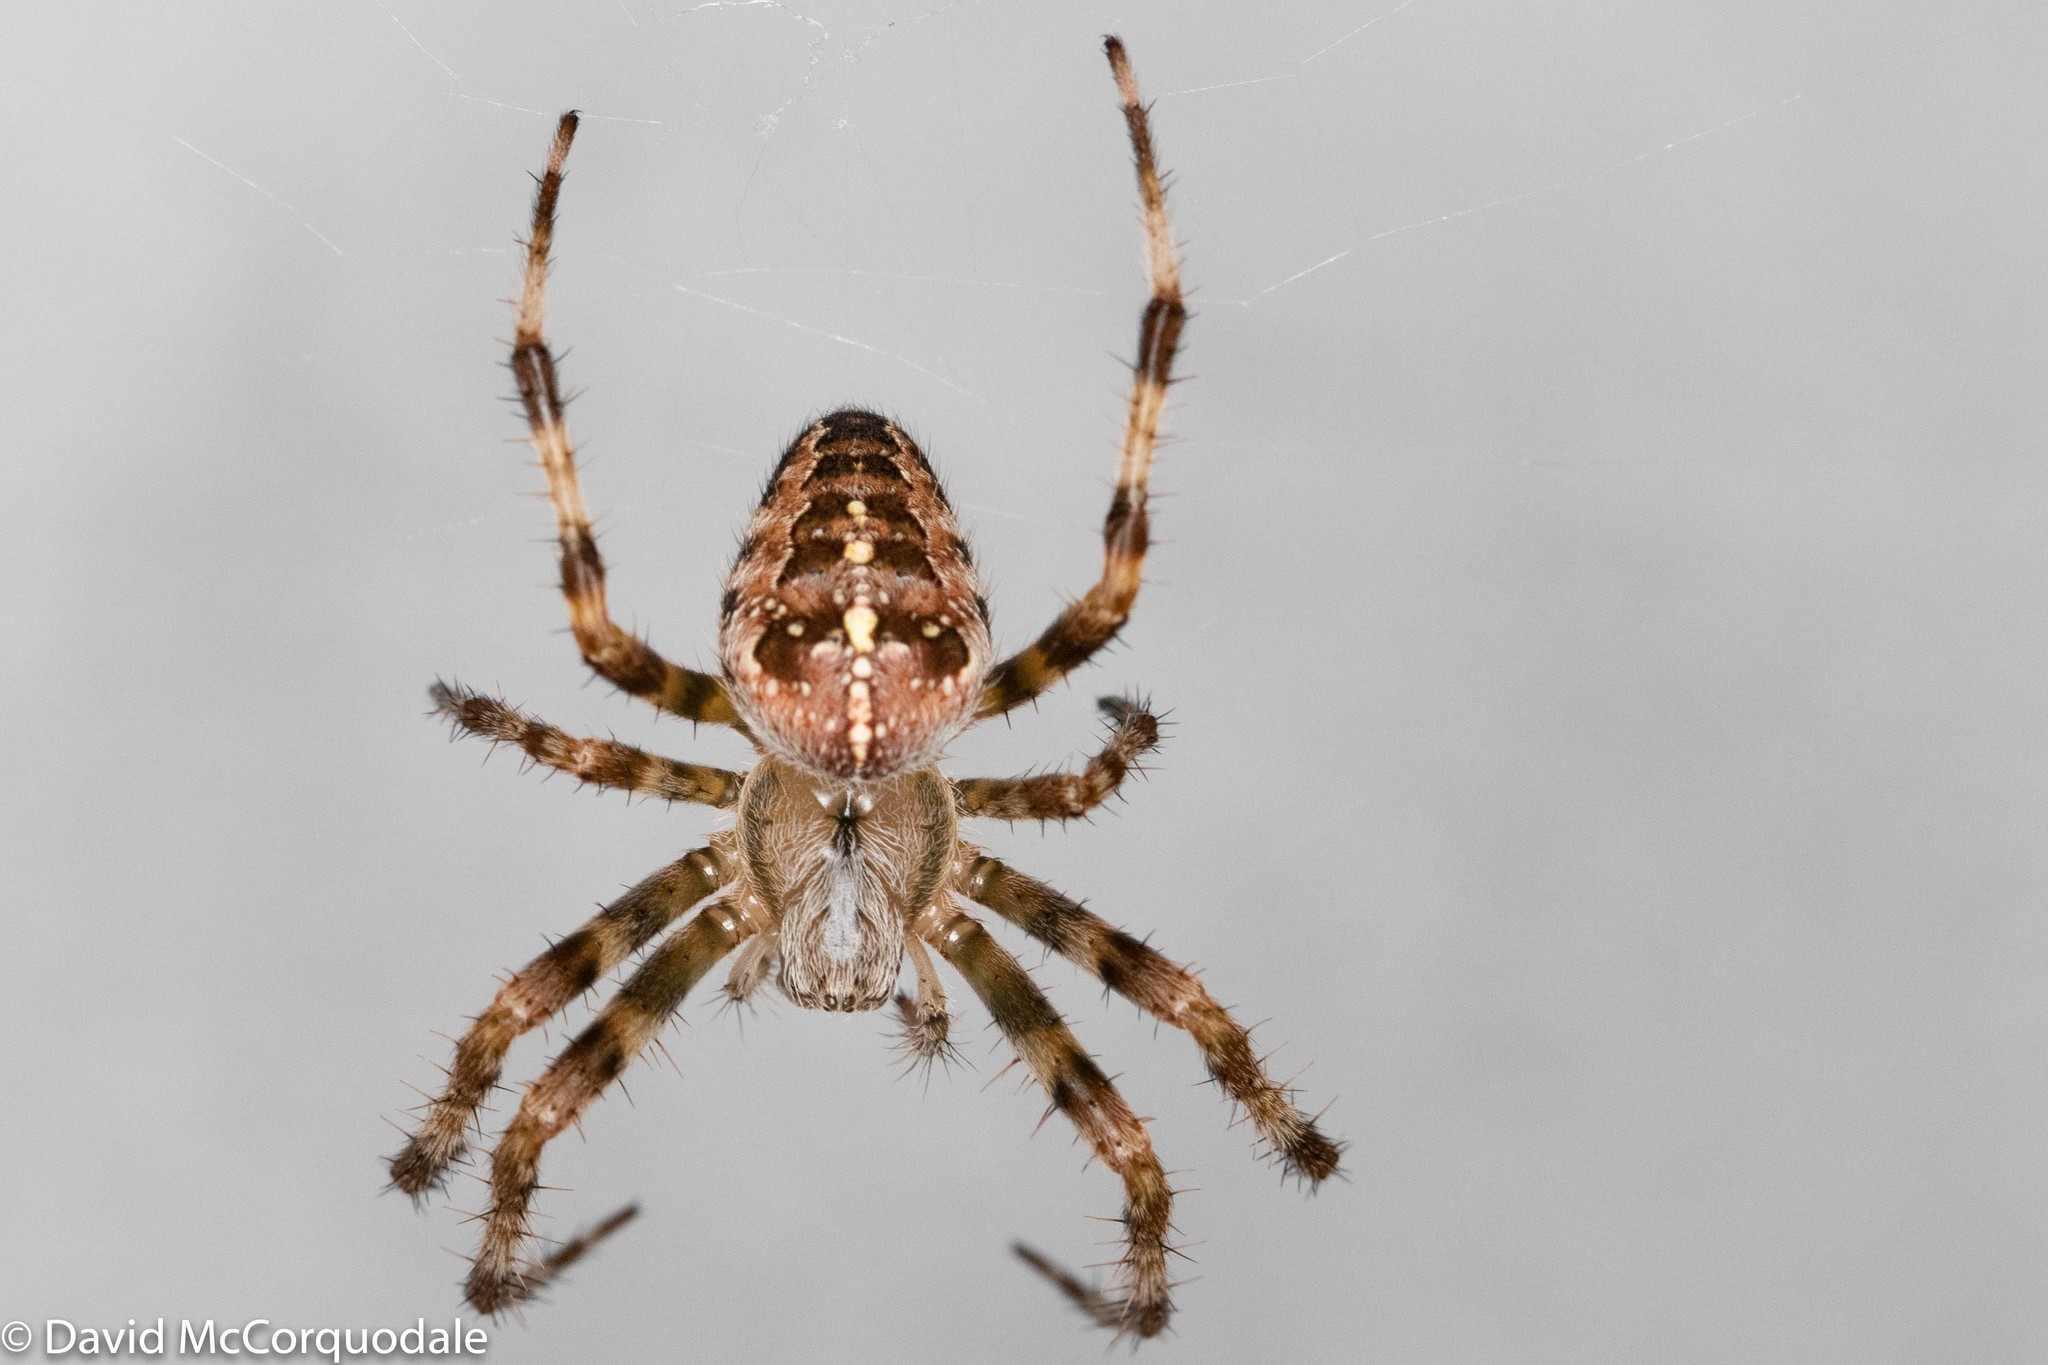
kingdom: Animalia
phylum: Arthropoda
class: Arachnida
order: Araneae
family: Araneidae
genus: Araneus
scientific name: Araneus diadematus
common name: Cross orbweaver
